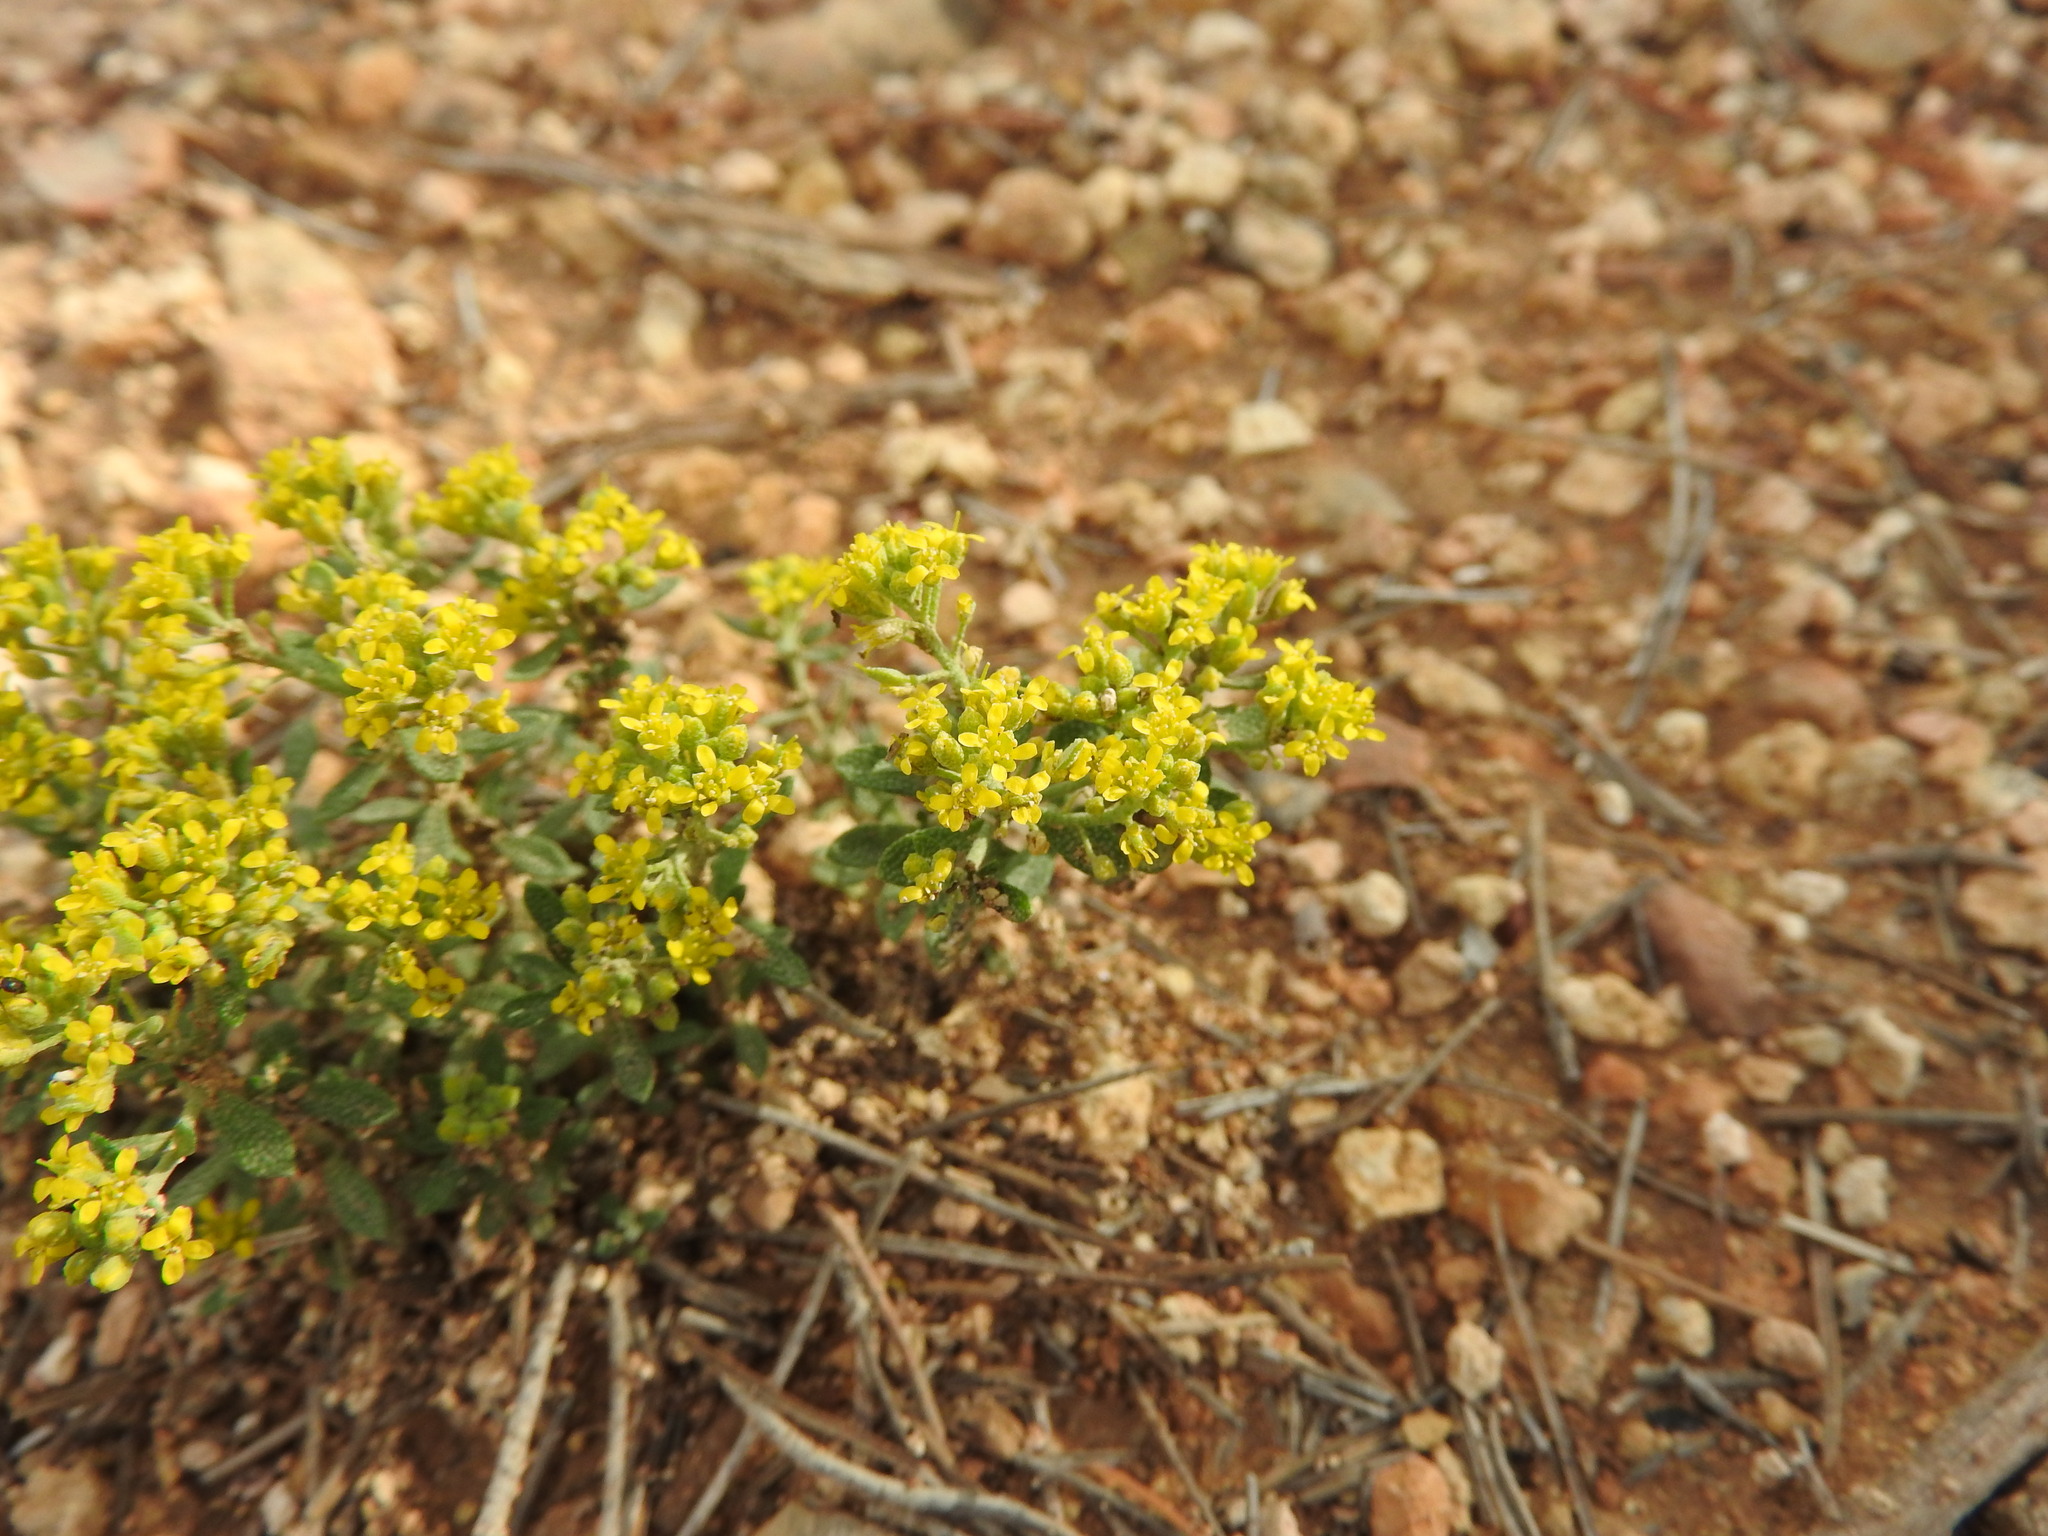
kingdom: Plantae
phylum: Tracheophyta
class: Magnoliopsida
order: Brassicales
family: Brassicaceae
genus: Odontarrhena
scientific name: Odontarrhena serpyllifolia
